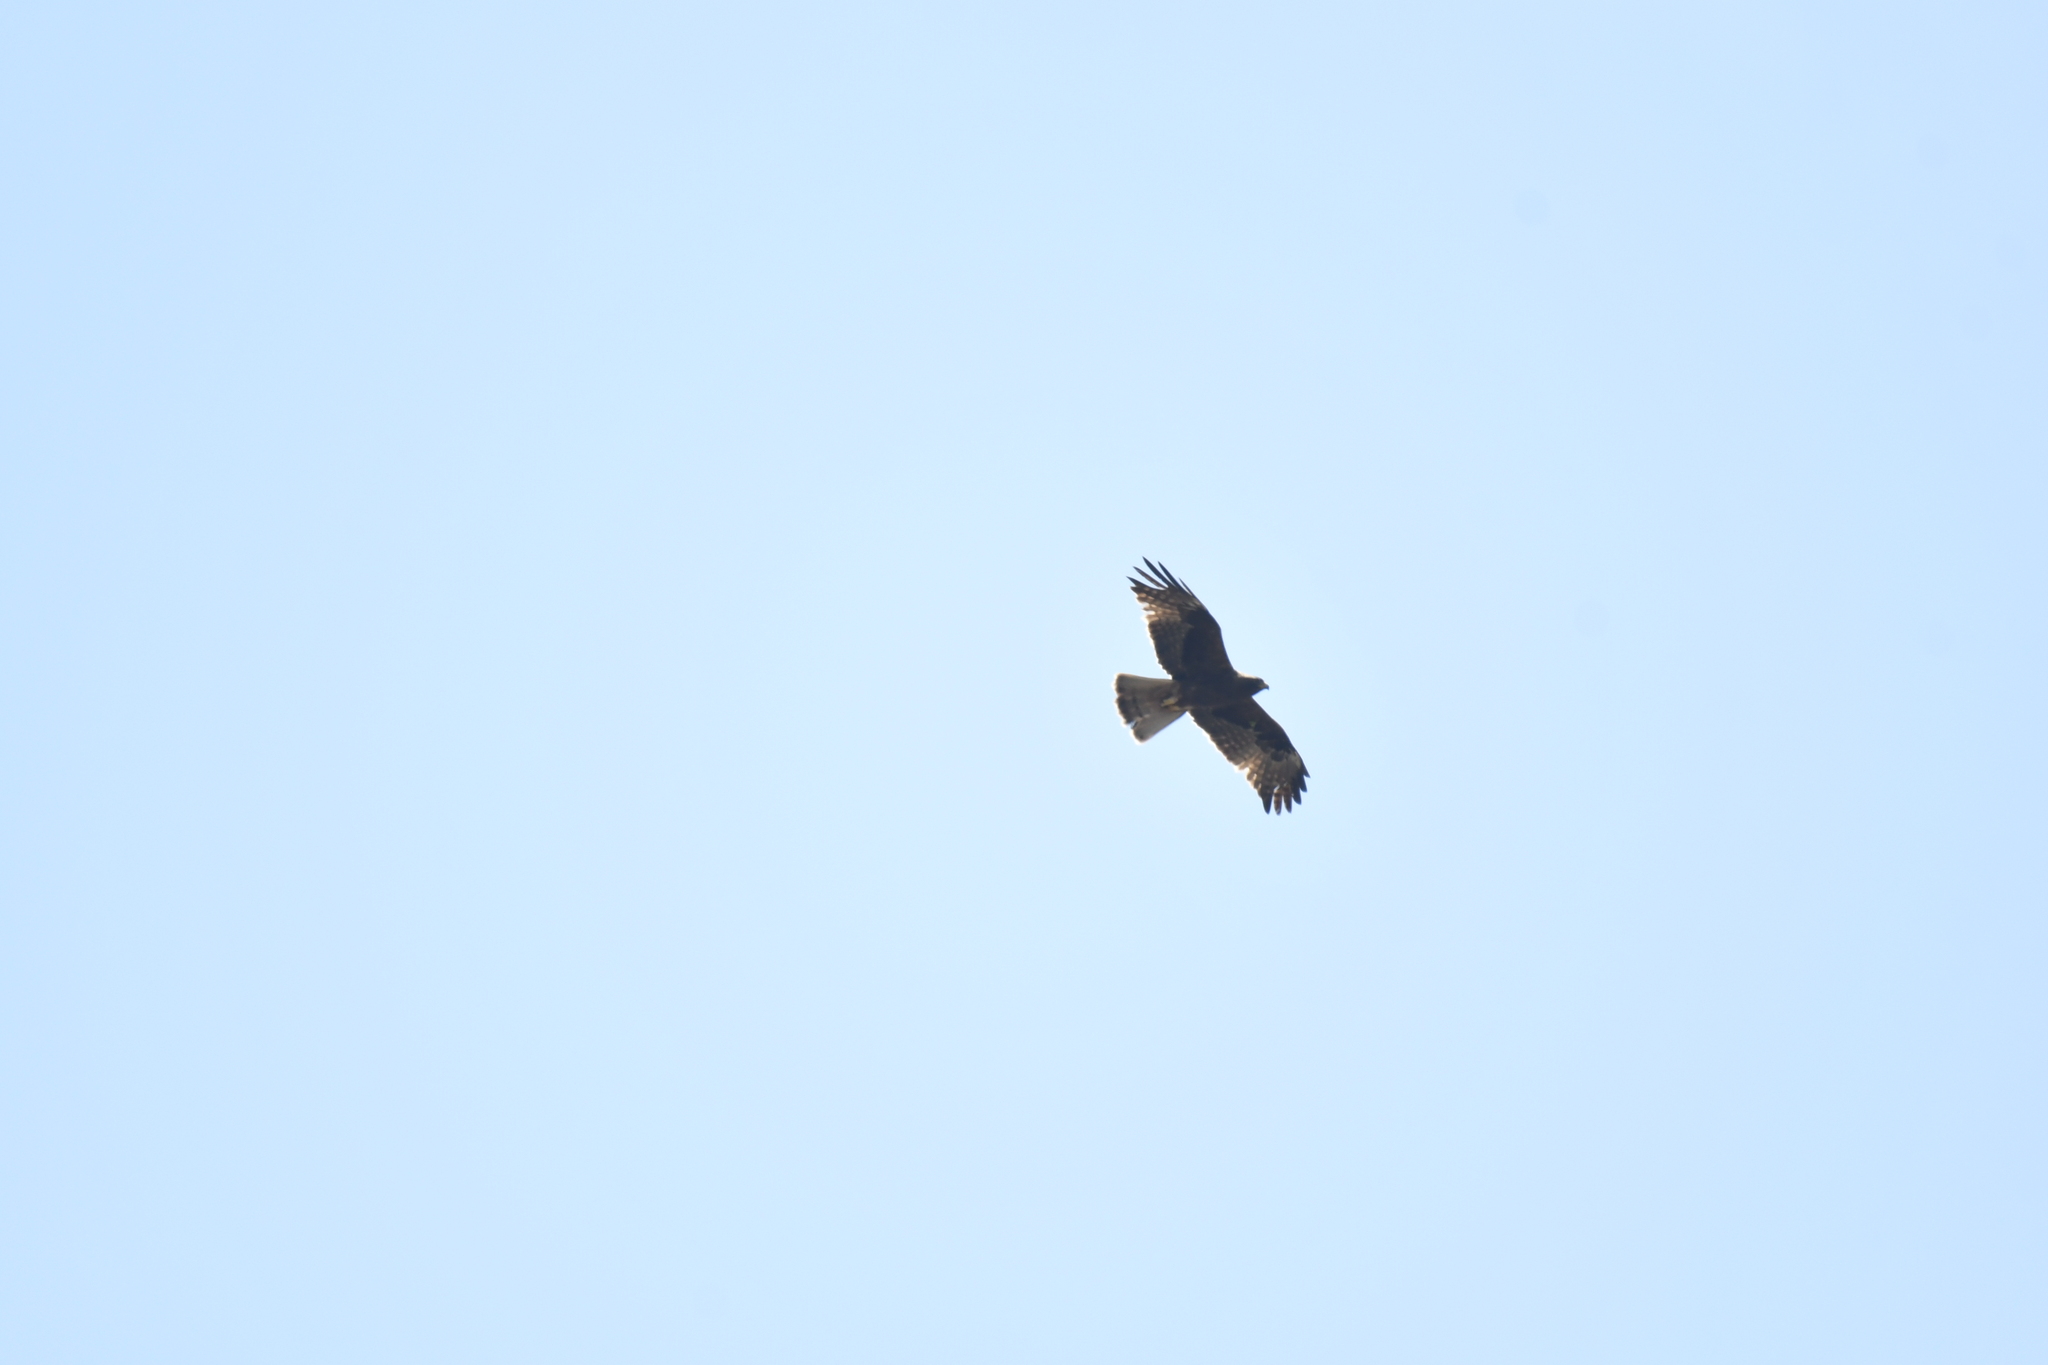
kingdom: Animalia
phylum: Chordata
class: Aves
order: Accipitriformes
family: Accipitridae
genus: Hieraaetus
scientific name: Hieraaetus pennatus
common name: Booted eagle
